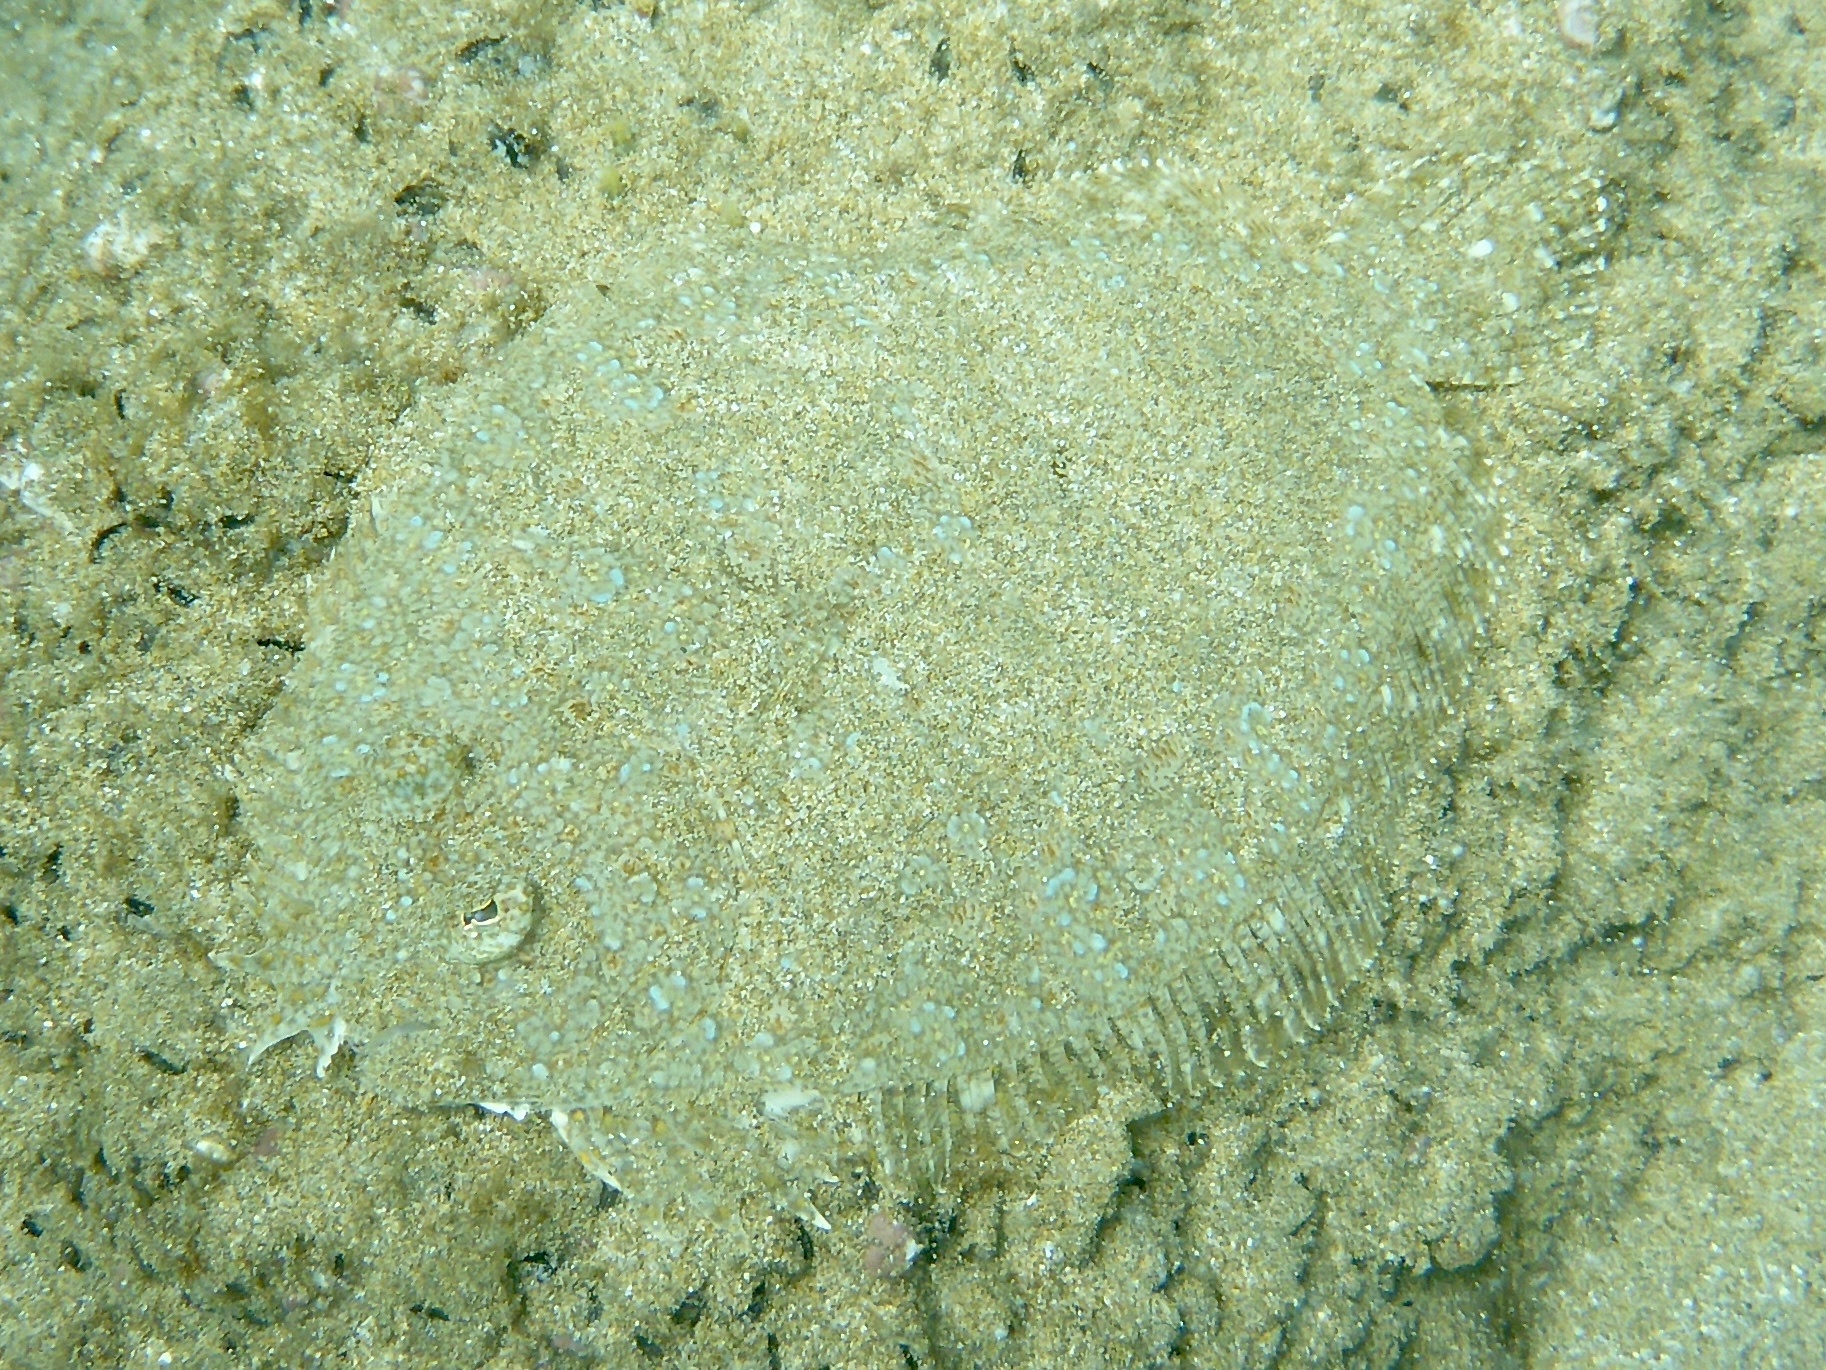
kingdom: Animalia
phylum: Chordata
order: Pleuronectiformes
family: Bothidae
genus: Bothus
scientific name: Bothus pantherinus
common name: Leopard flounder
